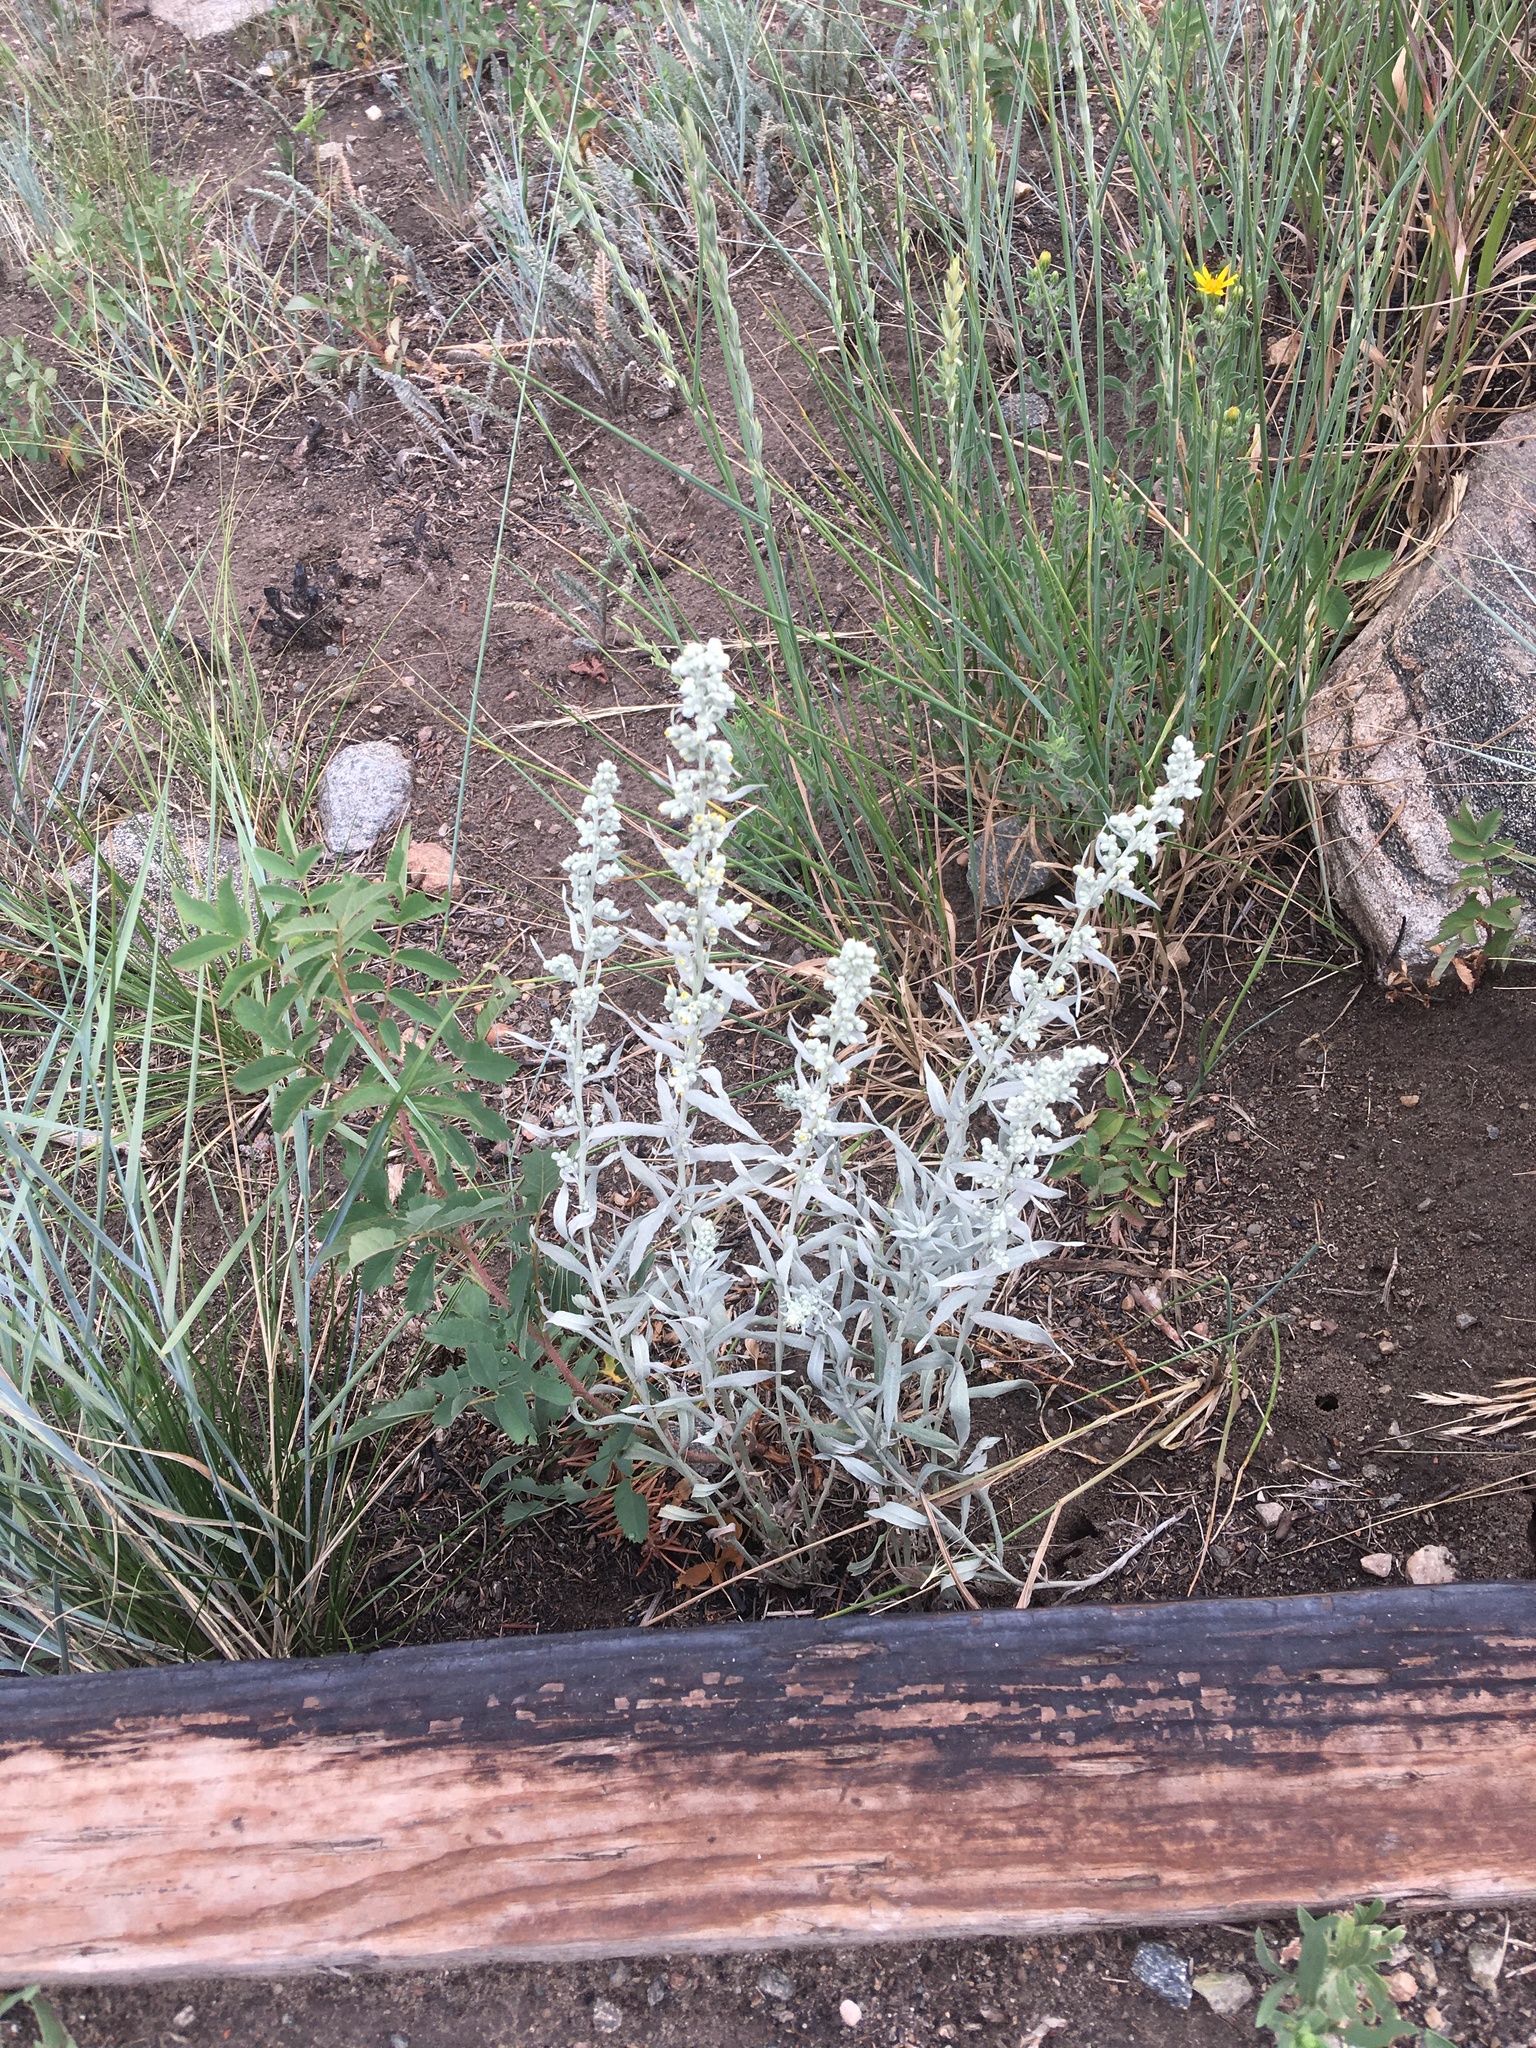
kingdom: Plantae
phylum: Tracheophyta
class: Magnoliopsida
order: Asterales
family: Asteraceae
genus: Artemisia
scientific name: Artemisia ludoviciana
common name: Western mugwort
